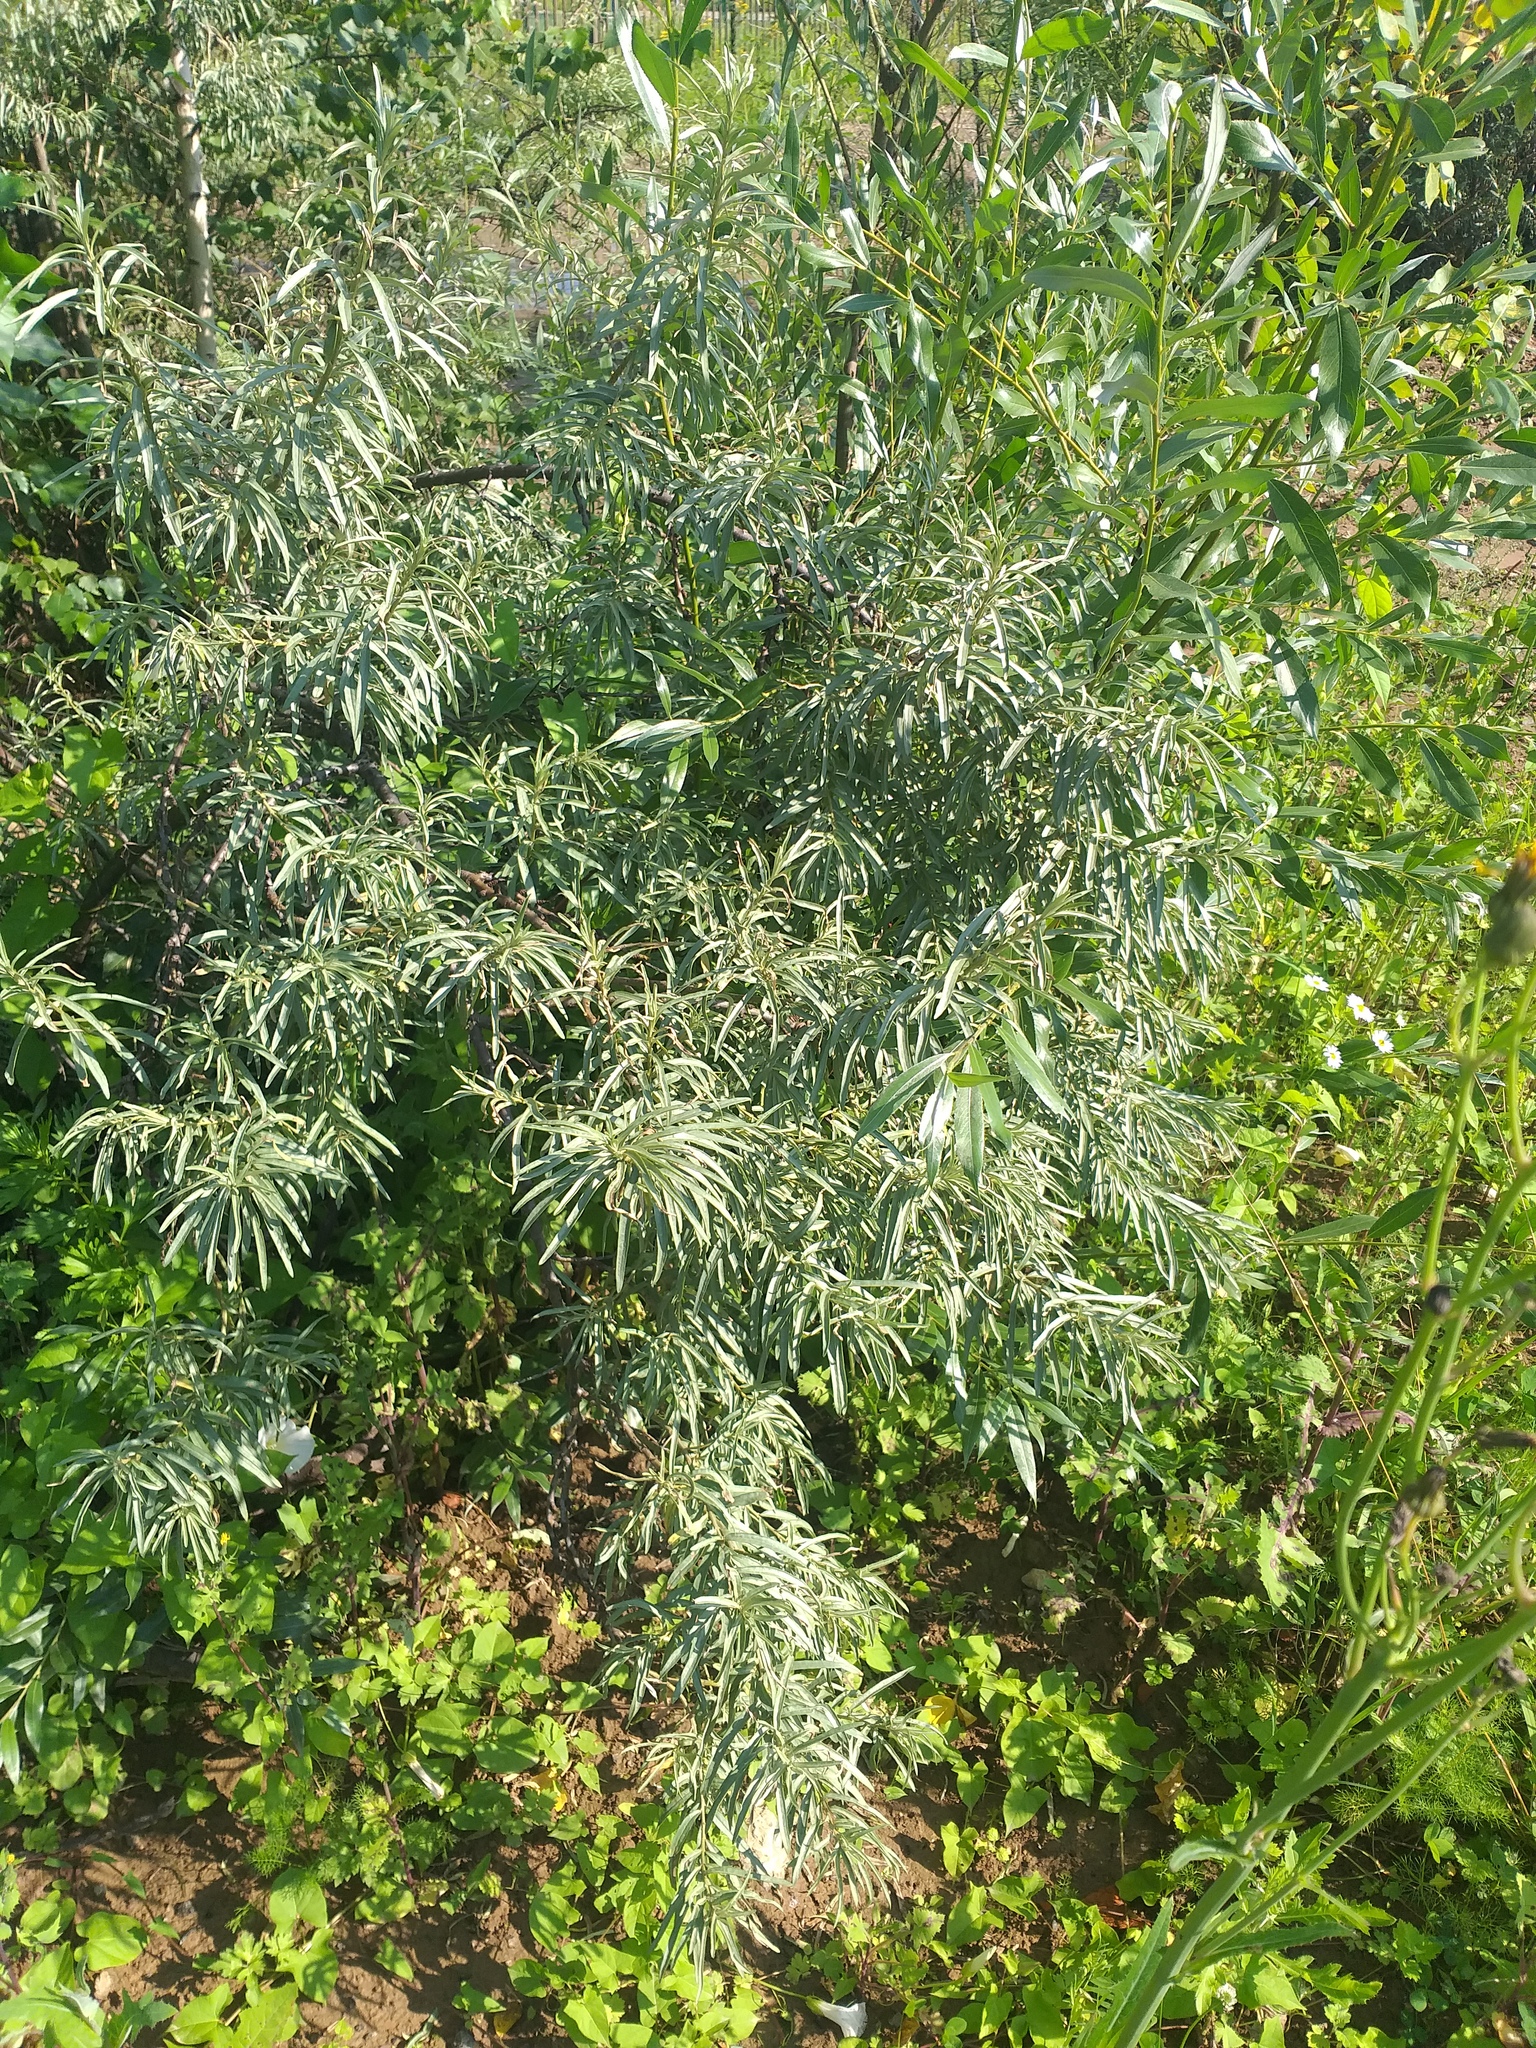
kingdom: Plantae
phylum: Tracheophyta
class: Magnoliopsida
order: Rosales
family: Elaeagnaceae
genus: Hippophae
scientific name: Hippophae rhamnoides
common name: Sea-buckthorn
